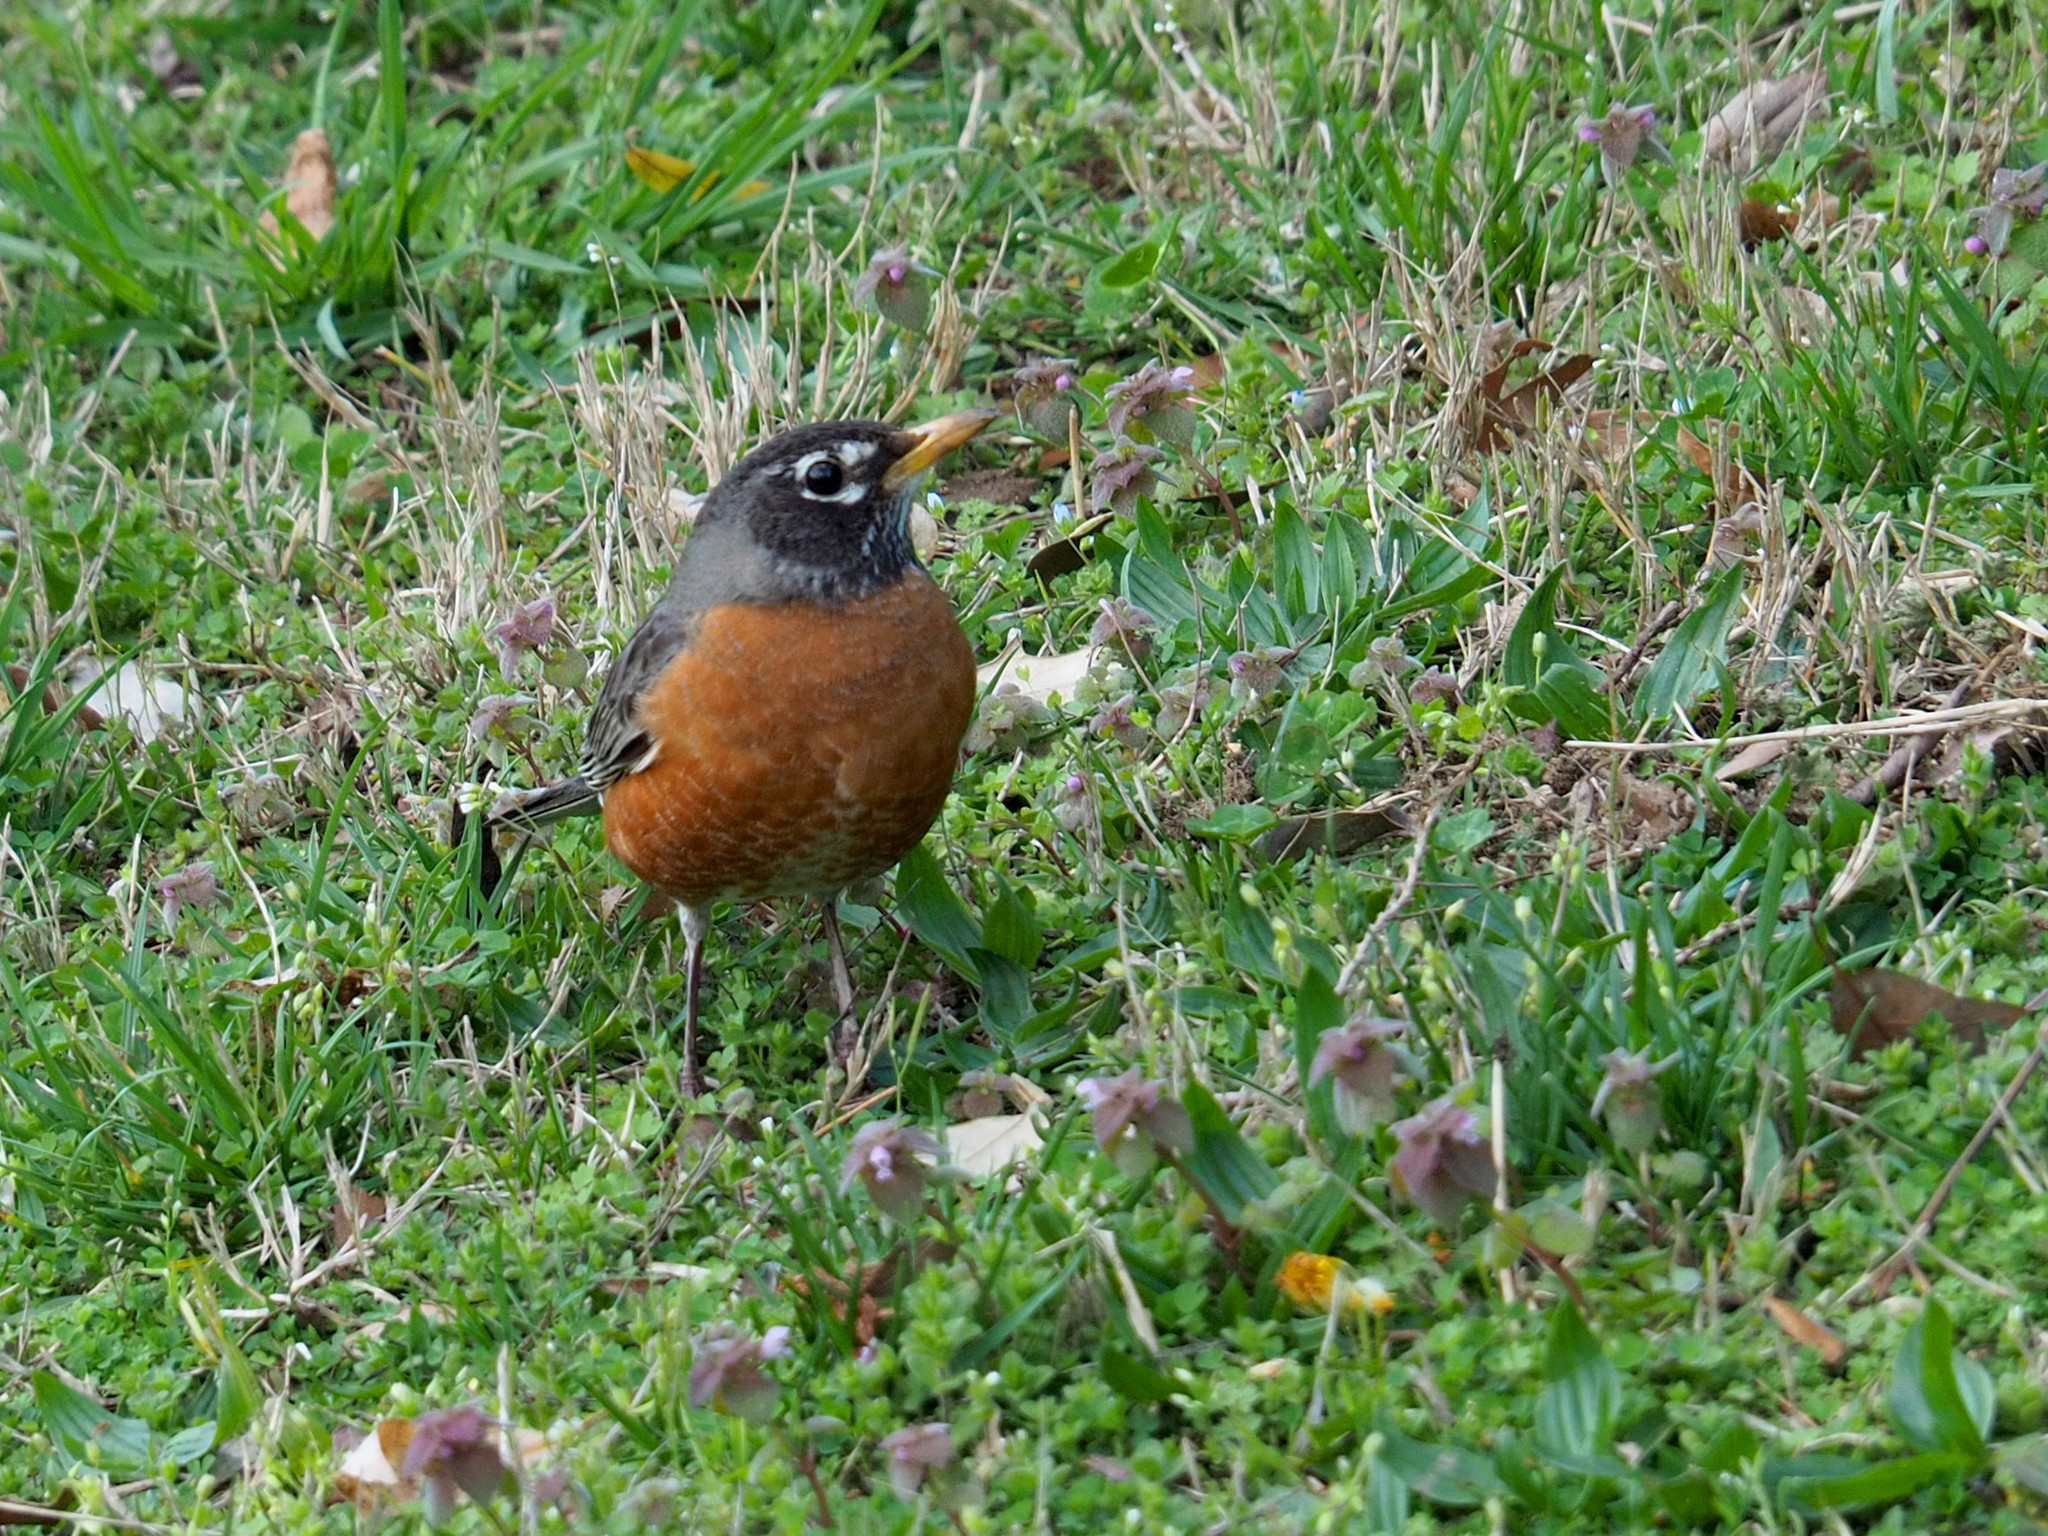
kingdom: Animalia
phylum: Chordata
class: Aves
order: Passeriformes
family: Turdidae
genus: Turdus
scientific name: Turdus migratorius
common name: American robin
